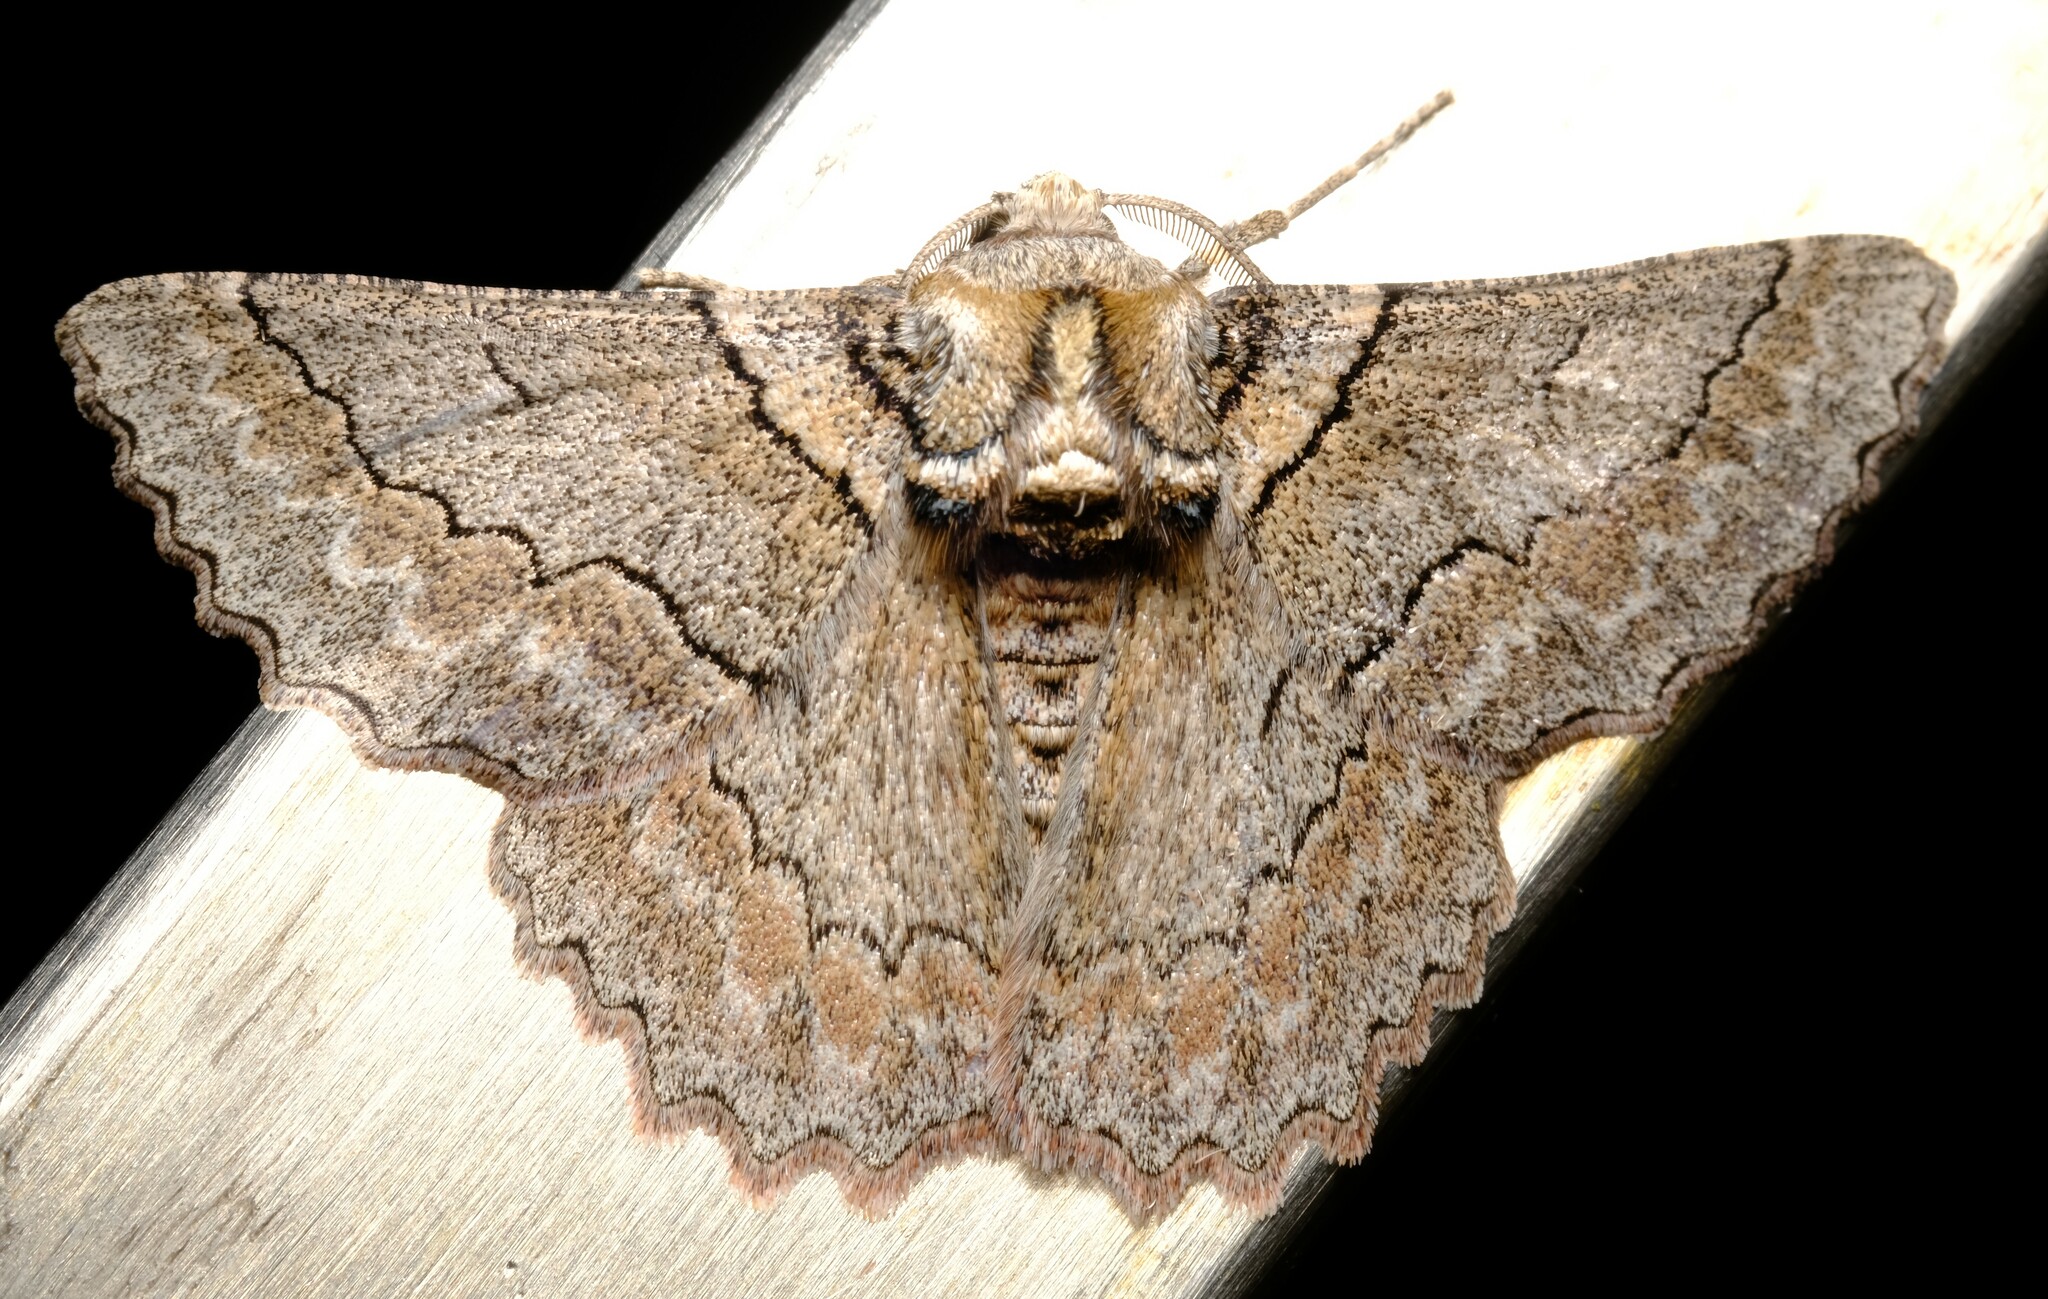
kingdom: Animalia
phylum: Arthropoda
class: Insecta
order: Lepidoptera
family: Geometridae
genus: Hypobapta
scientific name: Hypobapta tachyhalotaria
